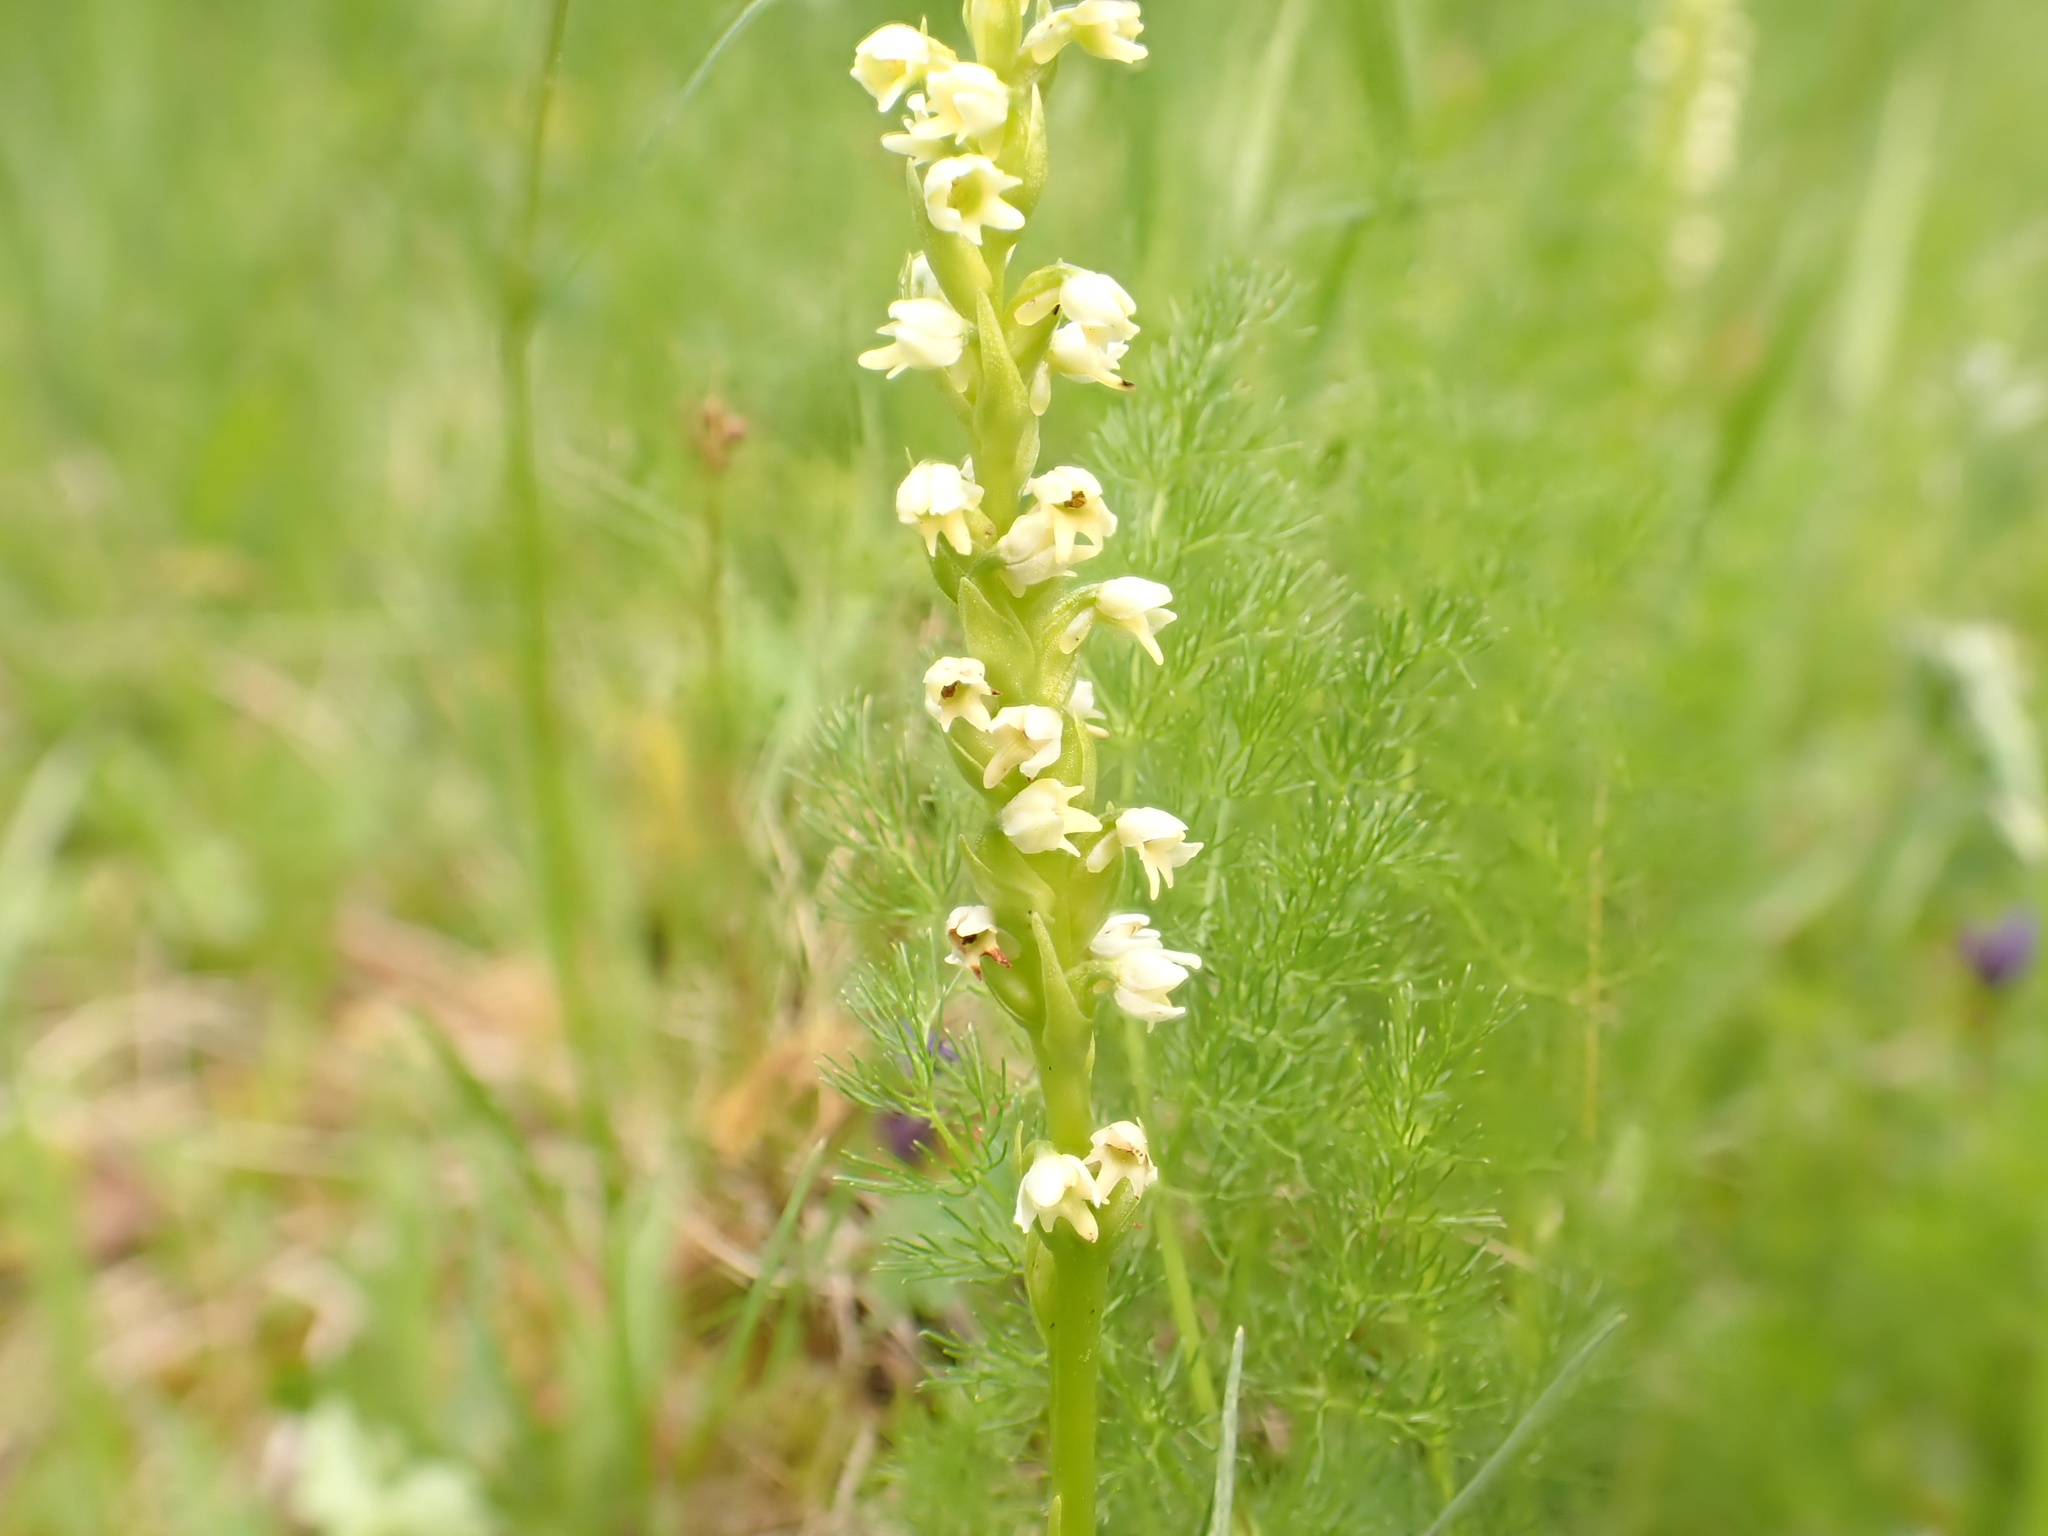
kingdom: Plantae
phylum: Tracheophyta
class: Liliopsida
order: Asparagales
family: Orchidaceae
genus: Pseudorchis
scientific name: Pseudorchis albida
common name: Small-white orchid
